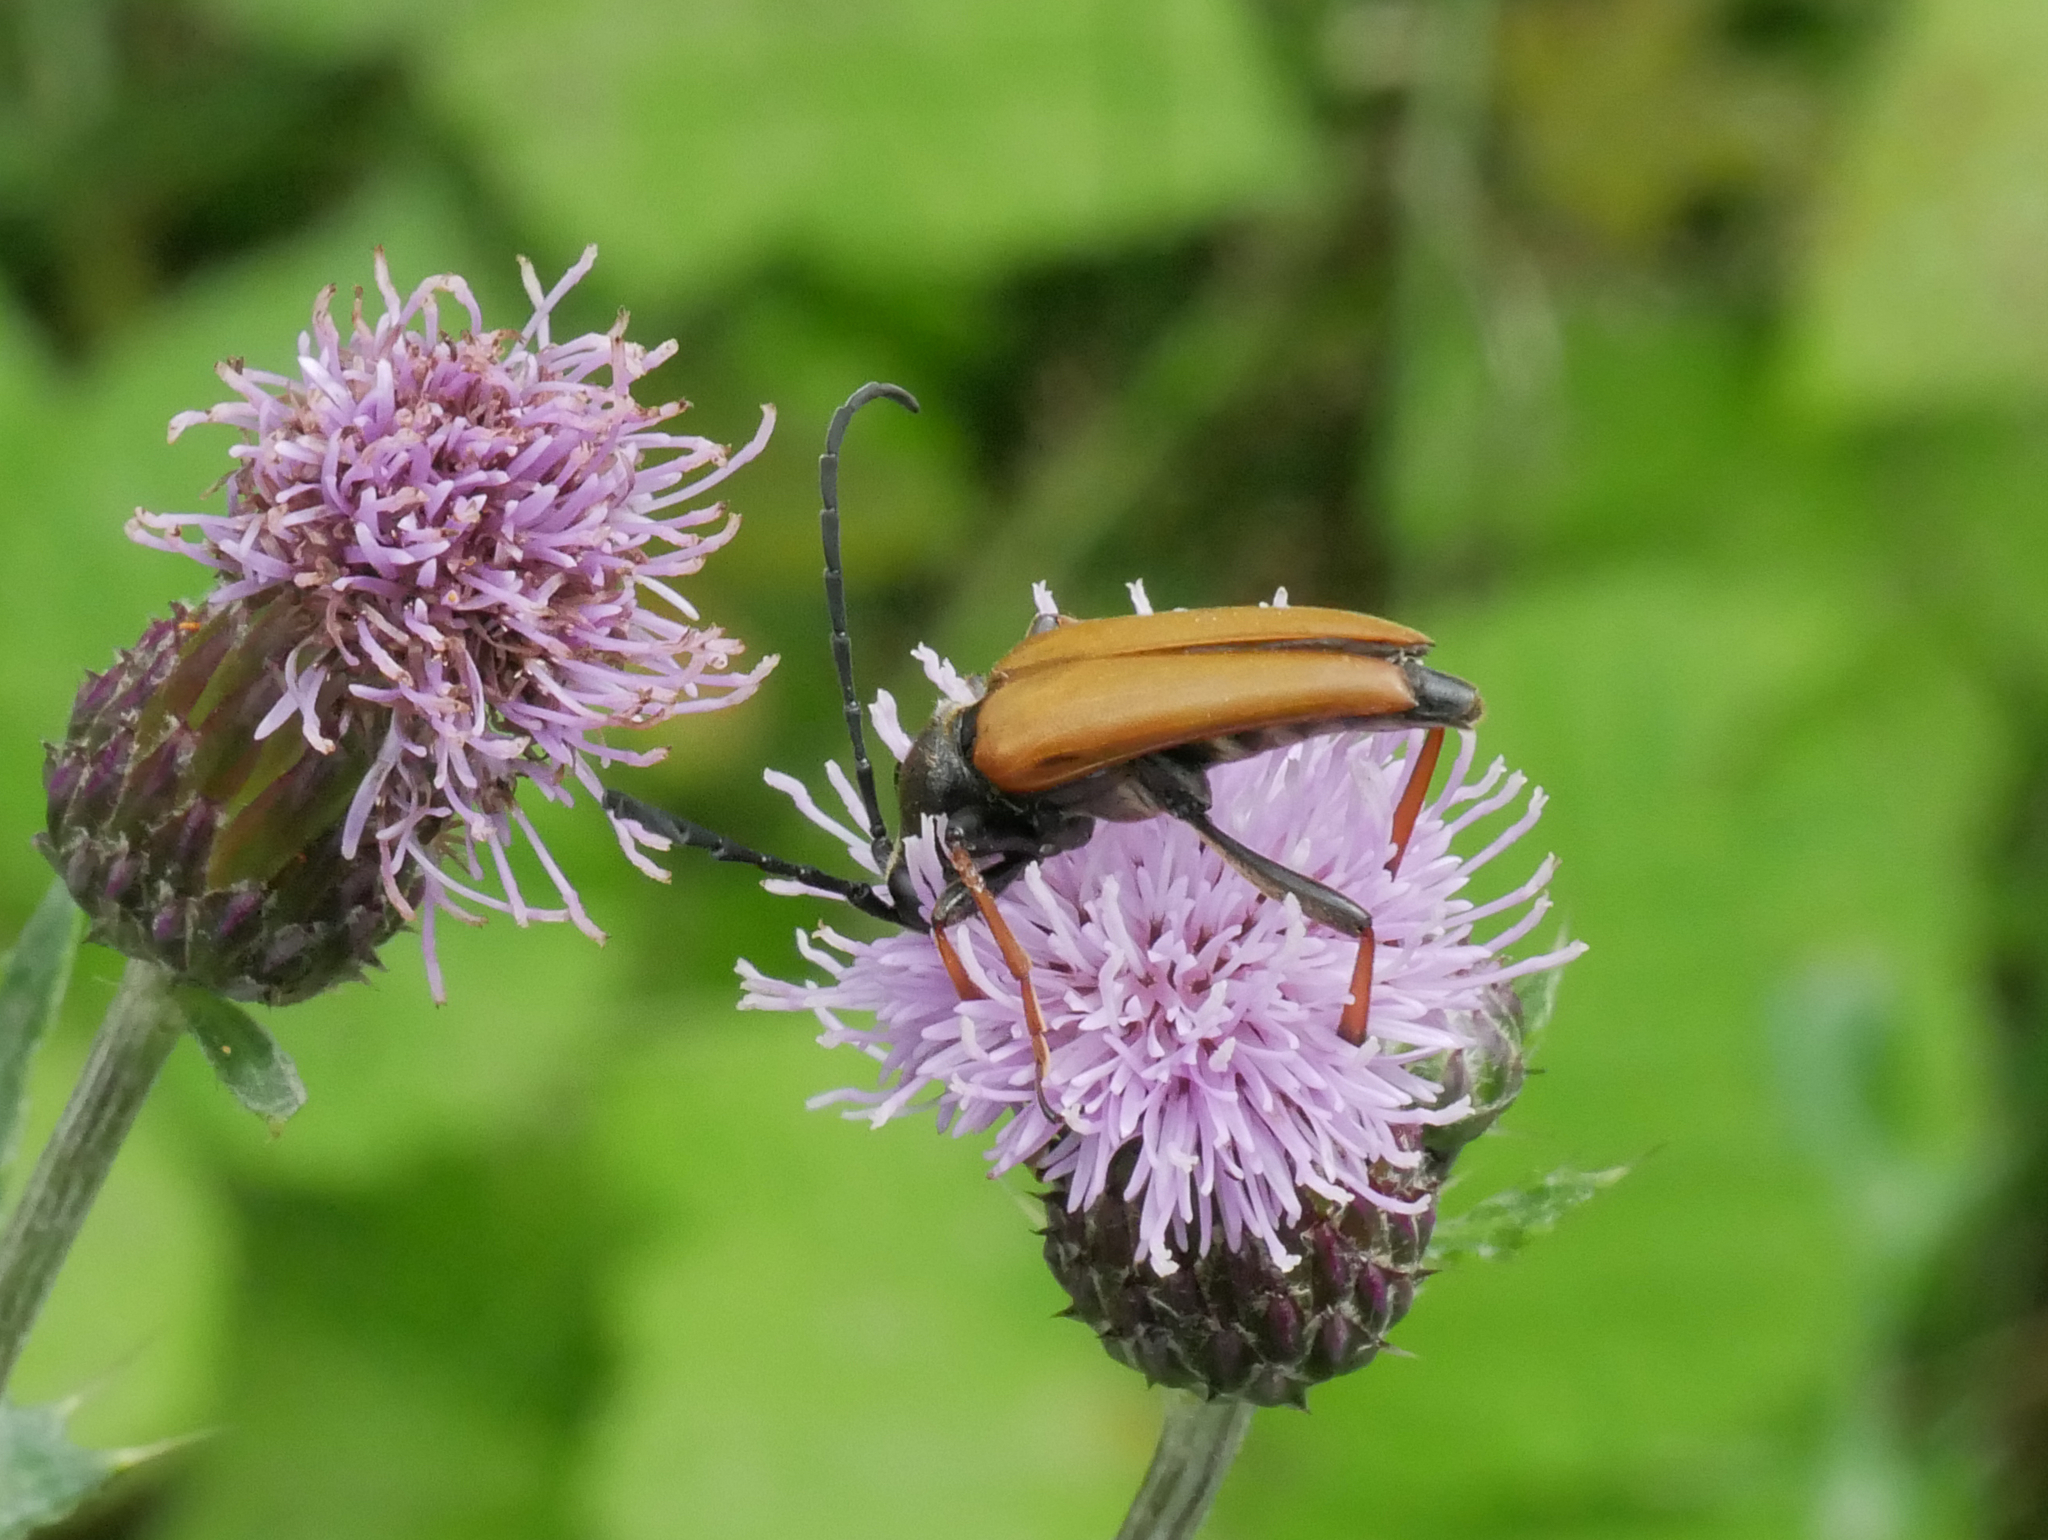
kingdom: Animalia
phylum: Arthropoda
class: Insecta
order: Coleoptera
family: Cerambycidae
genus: Stictoleptura
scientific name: Stictoleptura rubra
